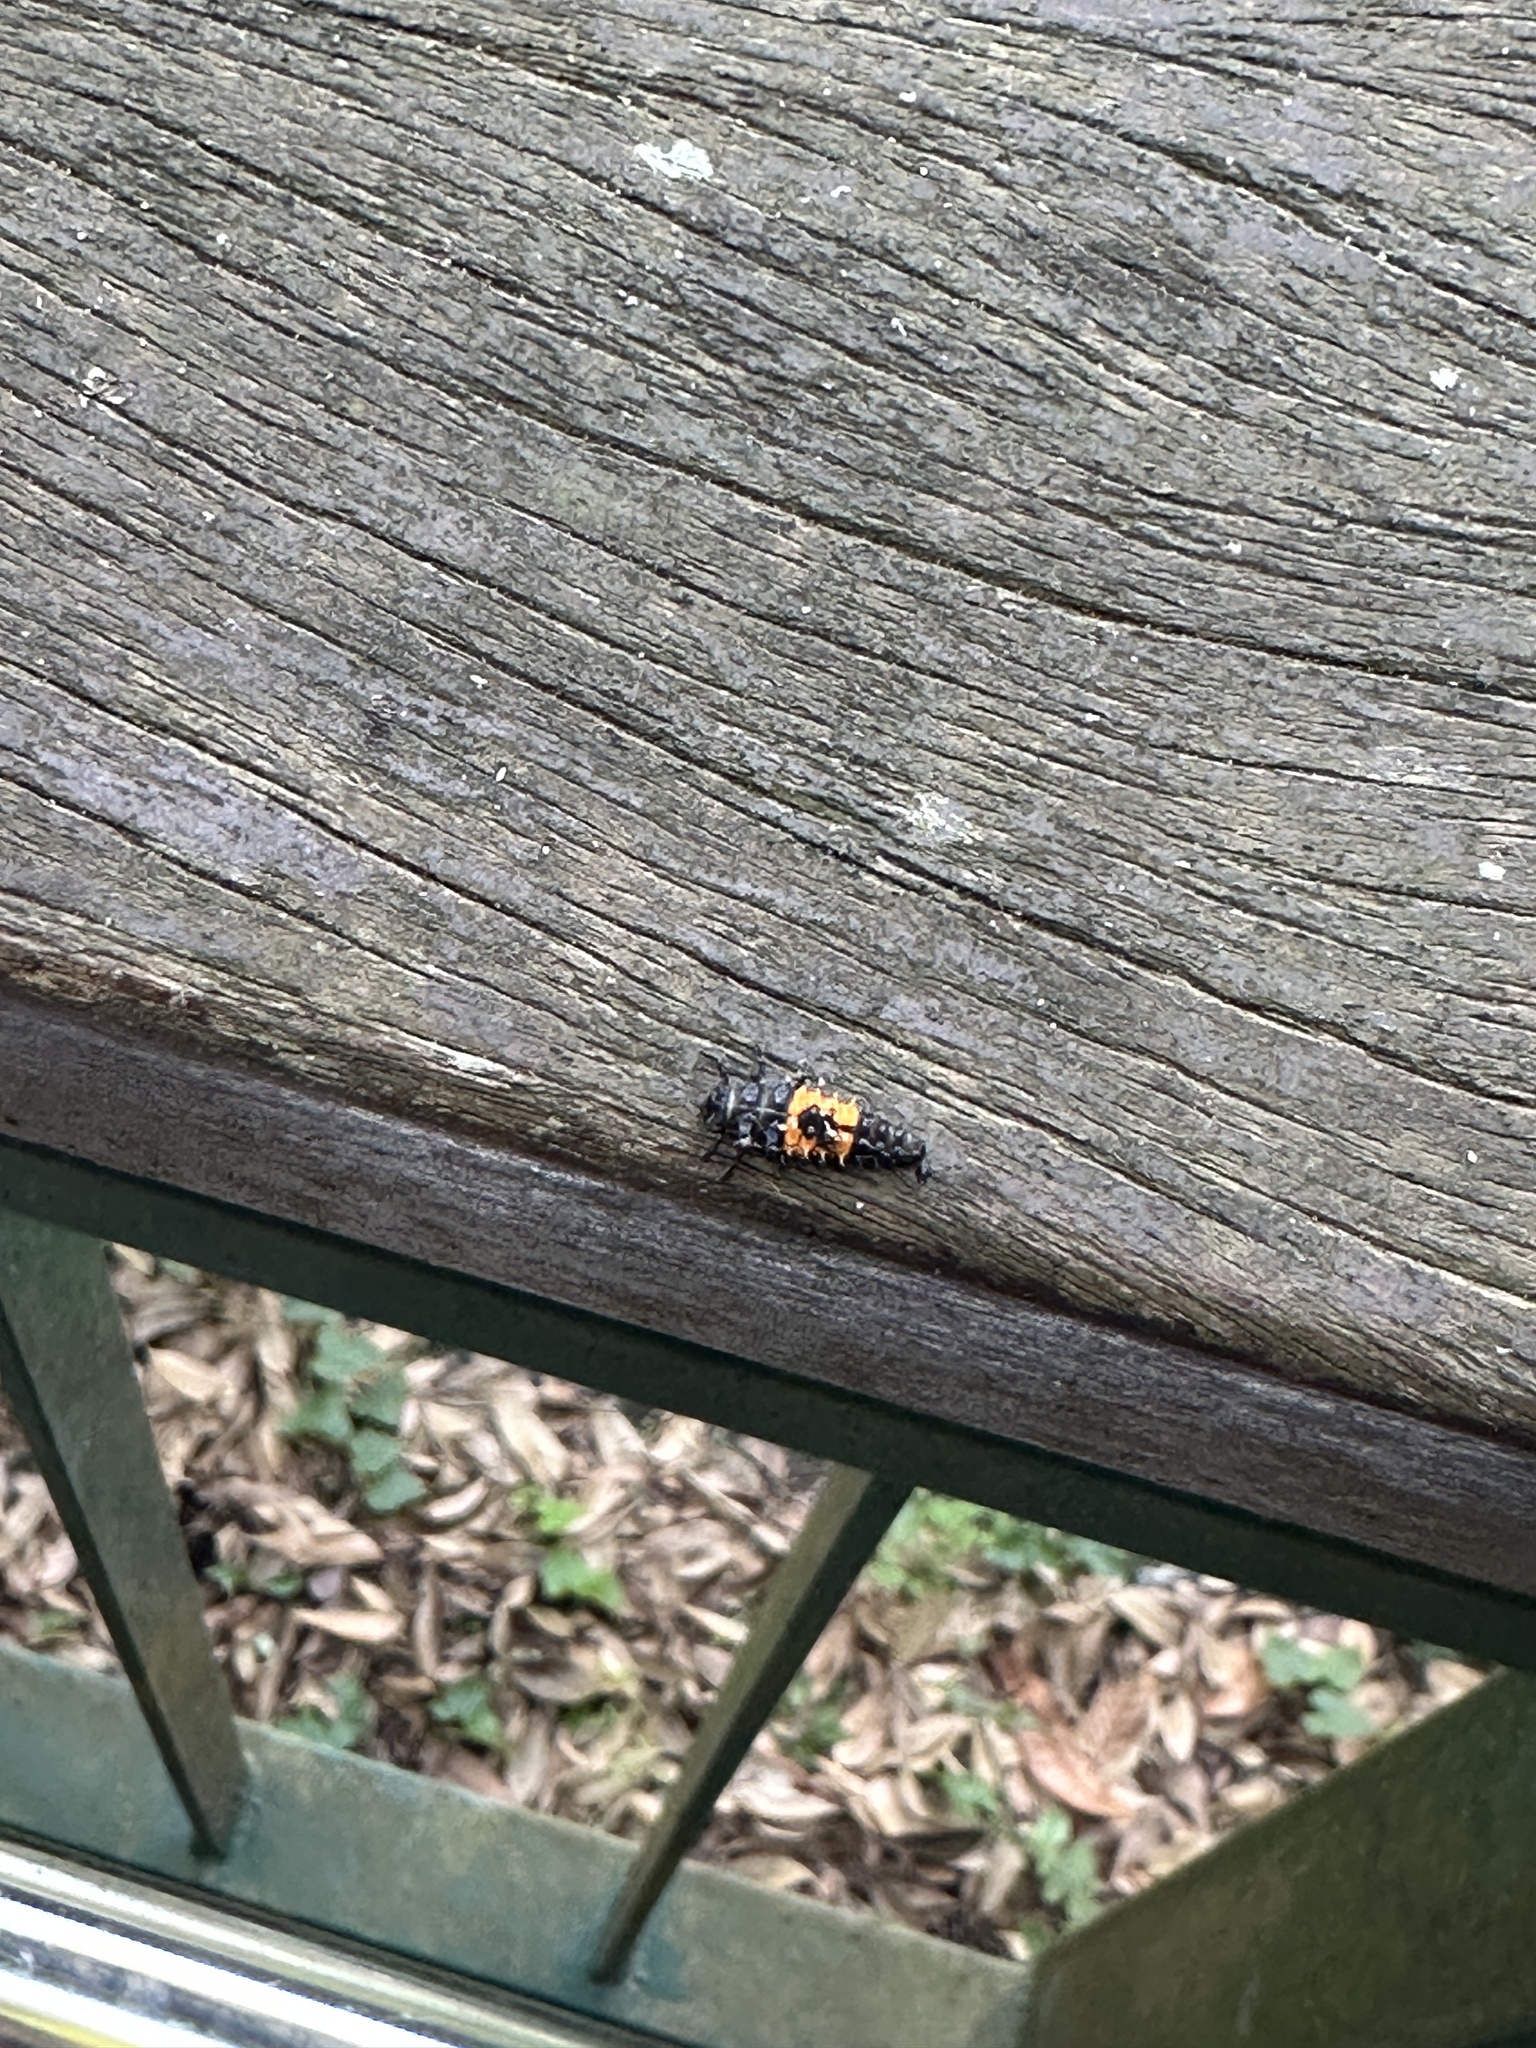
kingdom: Animalia
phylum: Arthropoda
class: Insecta
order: Coleoptera
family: Coccinellidae
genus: Harmonia
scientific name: Harmonia dimidiata
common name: Ladybird beetle
